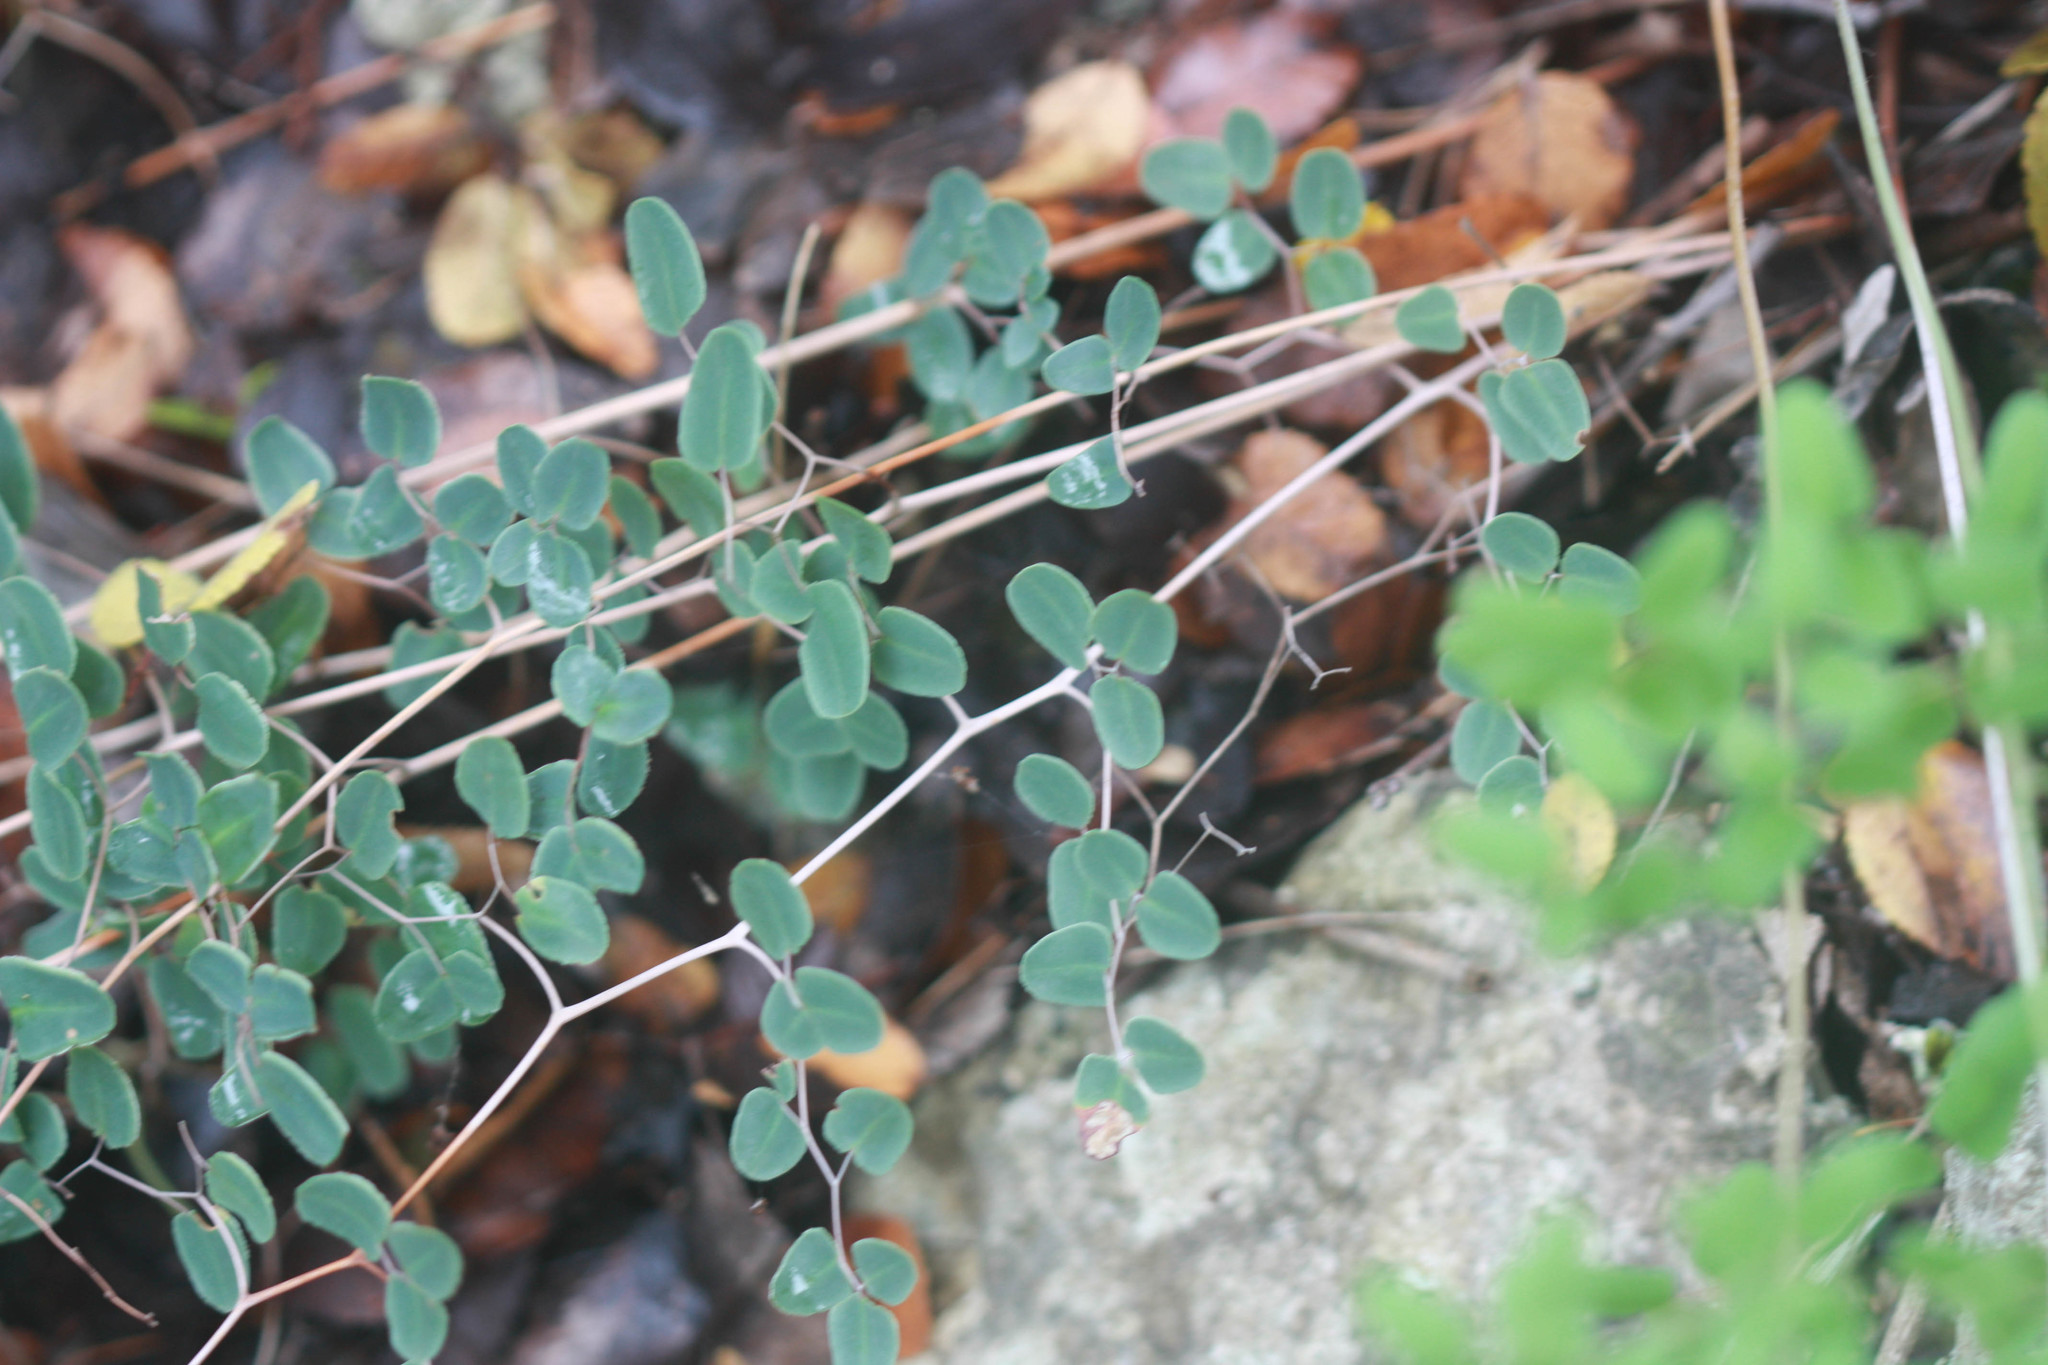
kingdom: Plantae
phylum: Tracheophyta
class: Polypodiopsida
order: Polypodiales
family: Pteridaceae
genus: Pellaea
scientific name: Pellaea ovata
